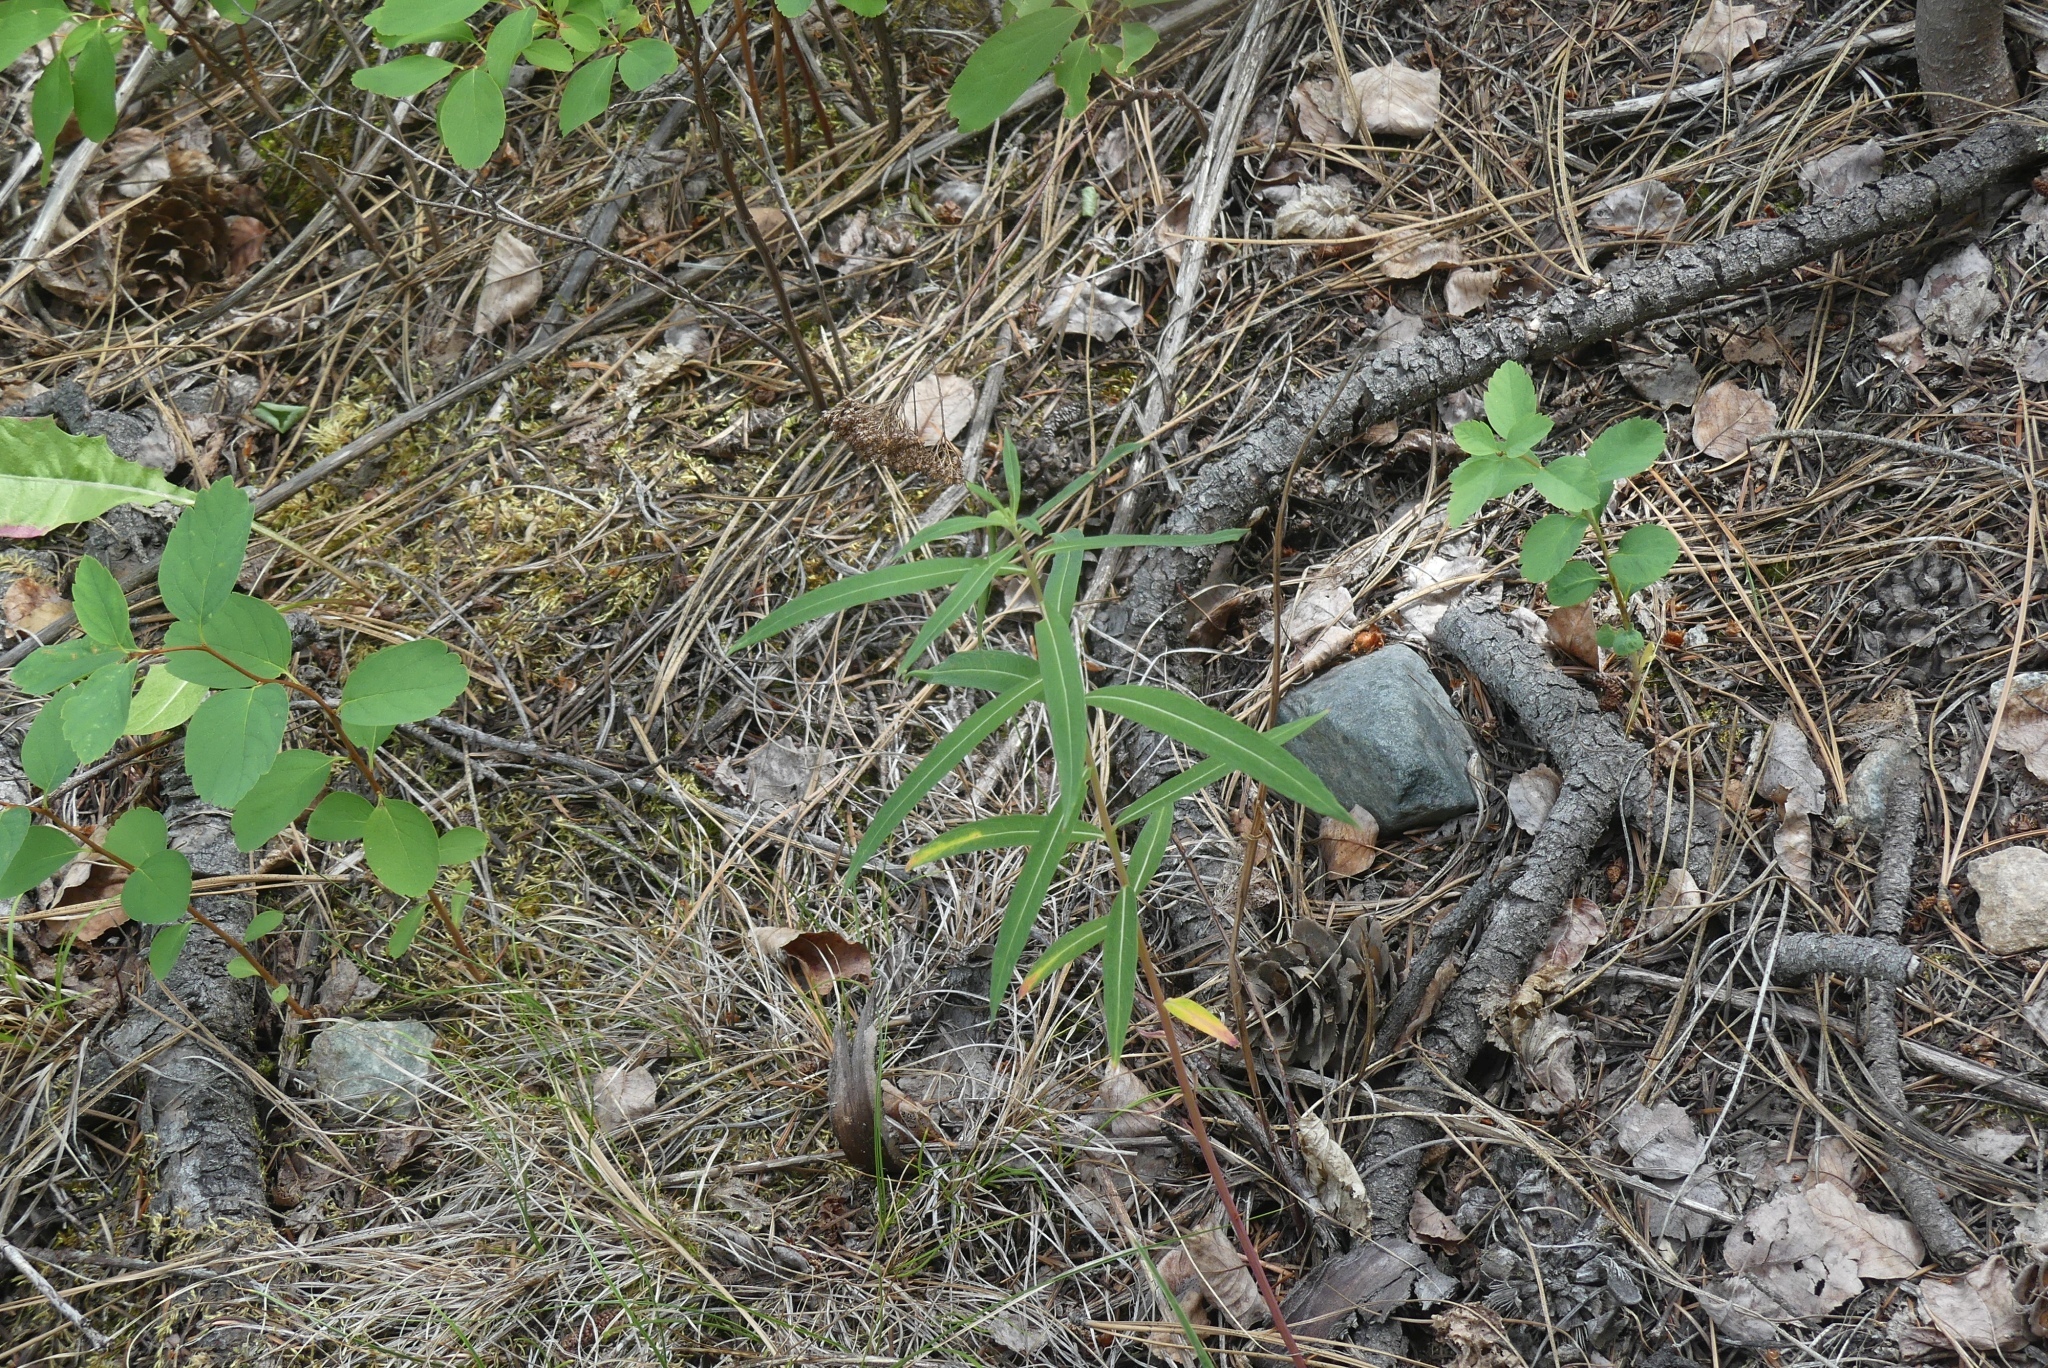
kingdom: Plantae
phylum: Tracheophyta
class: Magnoliopsida
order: Myrtales
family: Onagraceae
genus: Chamaenerion
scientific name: Chamaenerion angustifolium
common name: Fireweed
